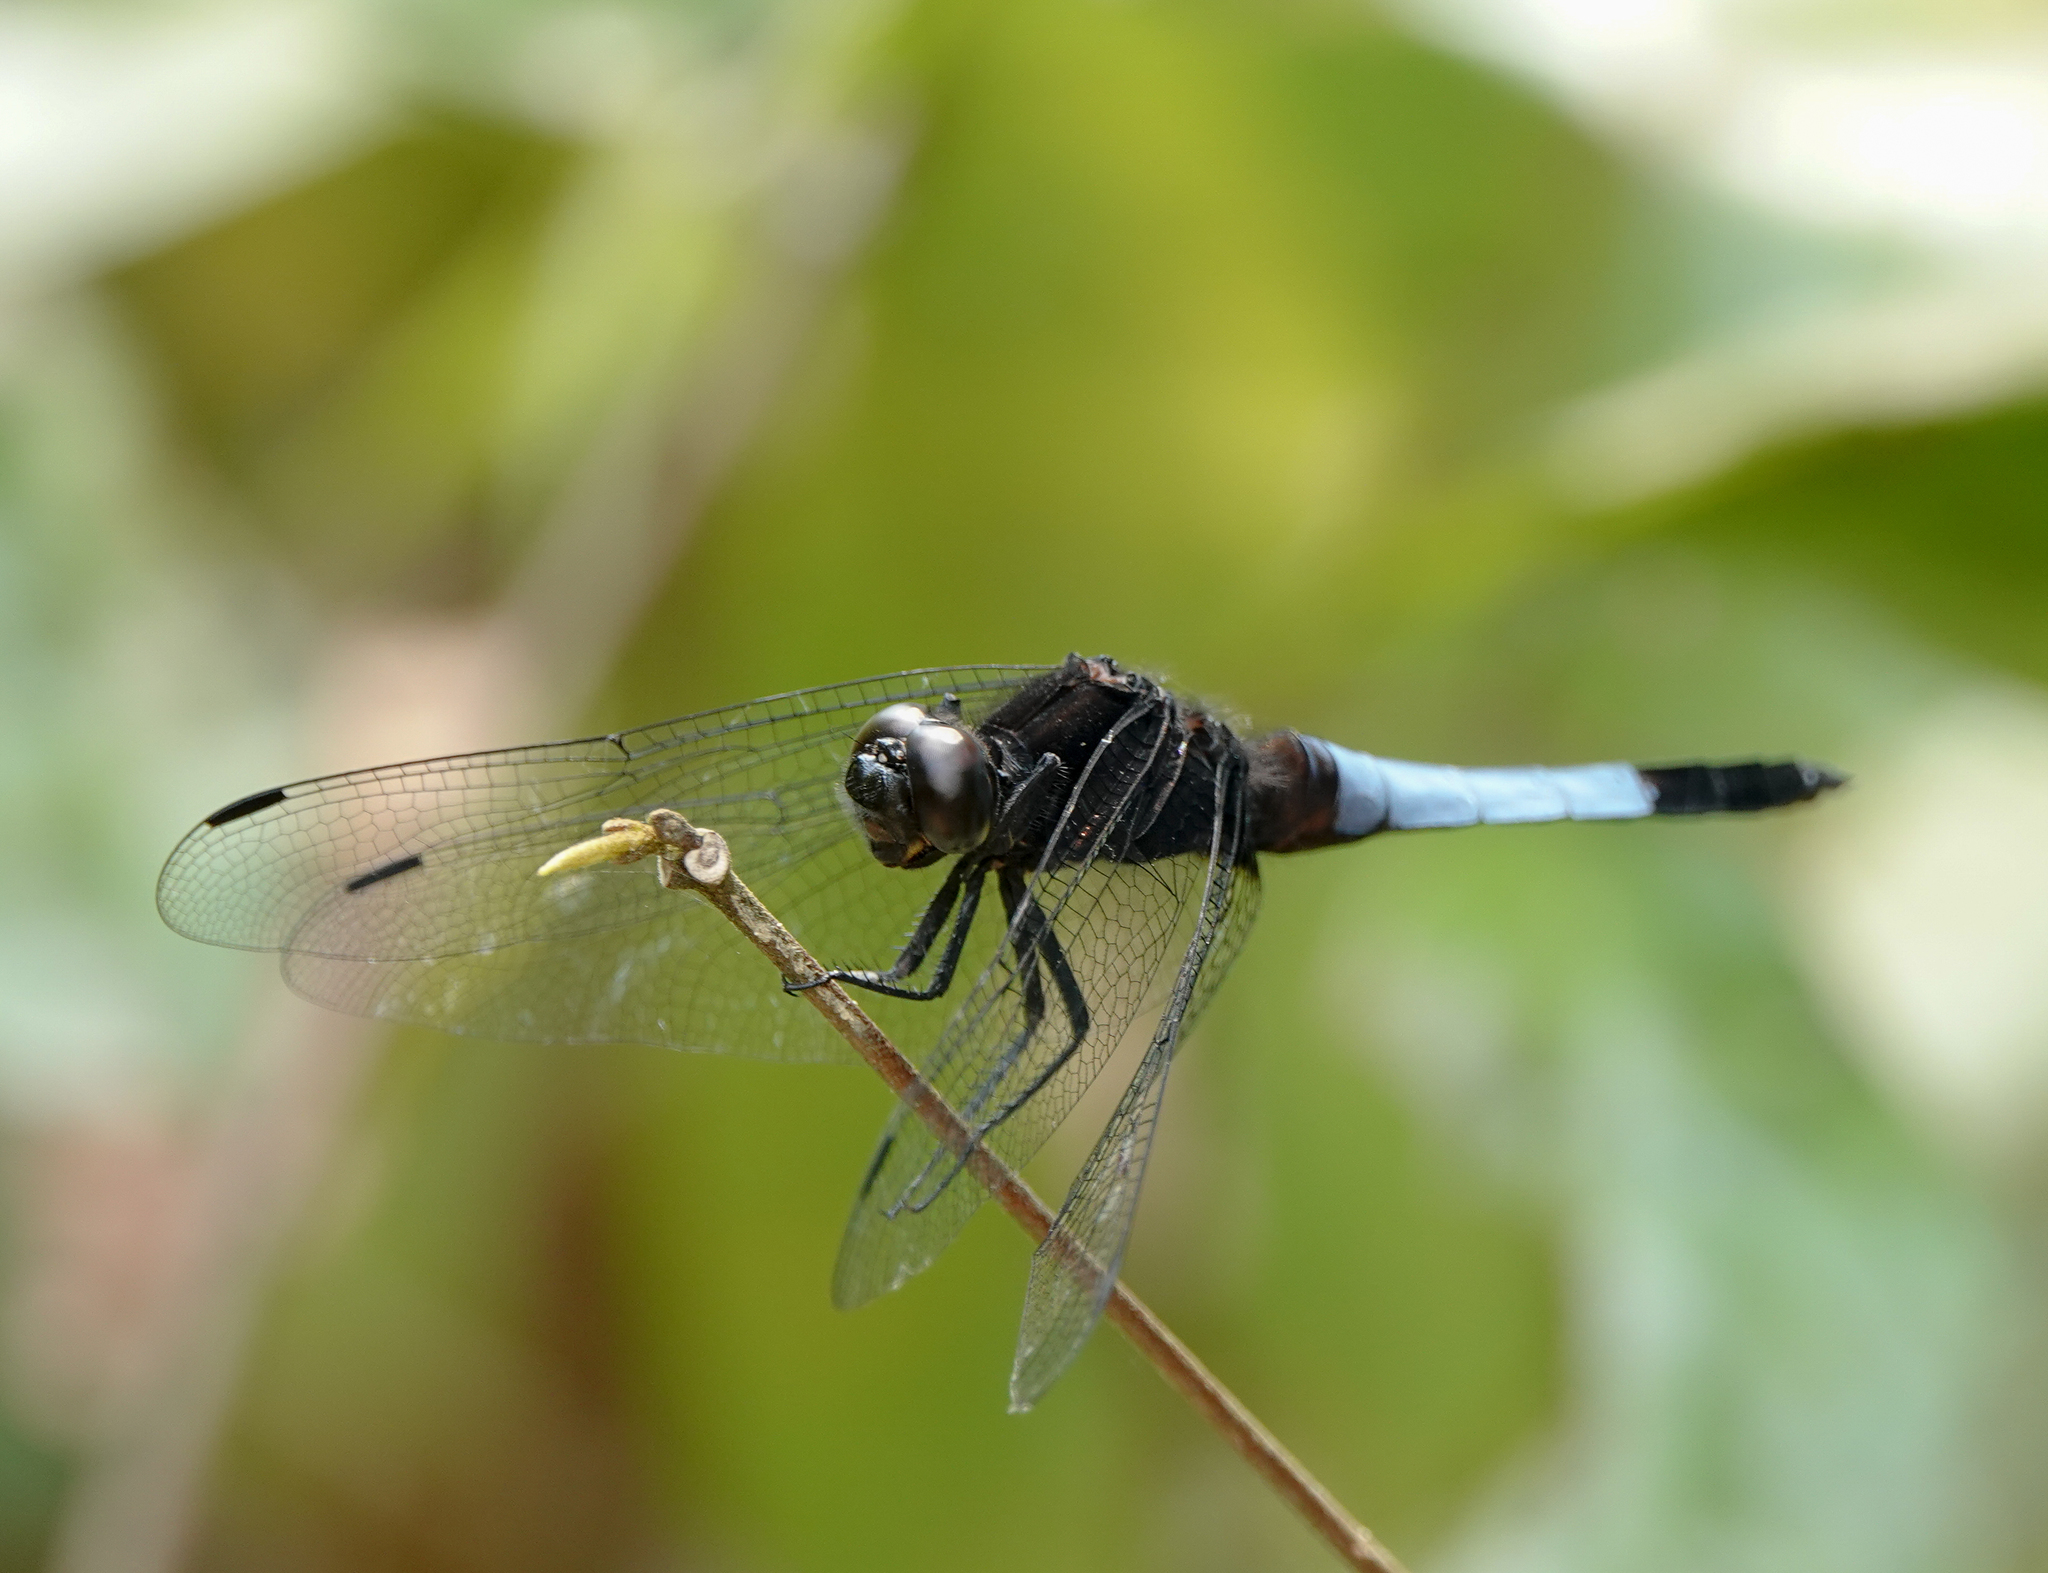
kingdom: Animalia
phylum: Arthropoda
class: Insecta
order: Odonata
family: Libellulidae
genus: Orthetrum
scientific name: Orthetrum triangulare
